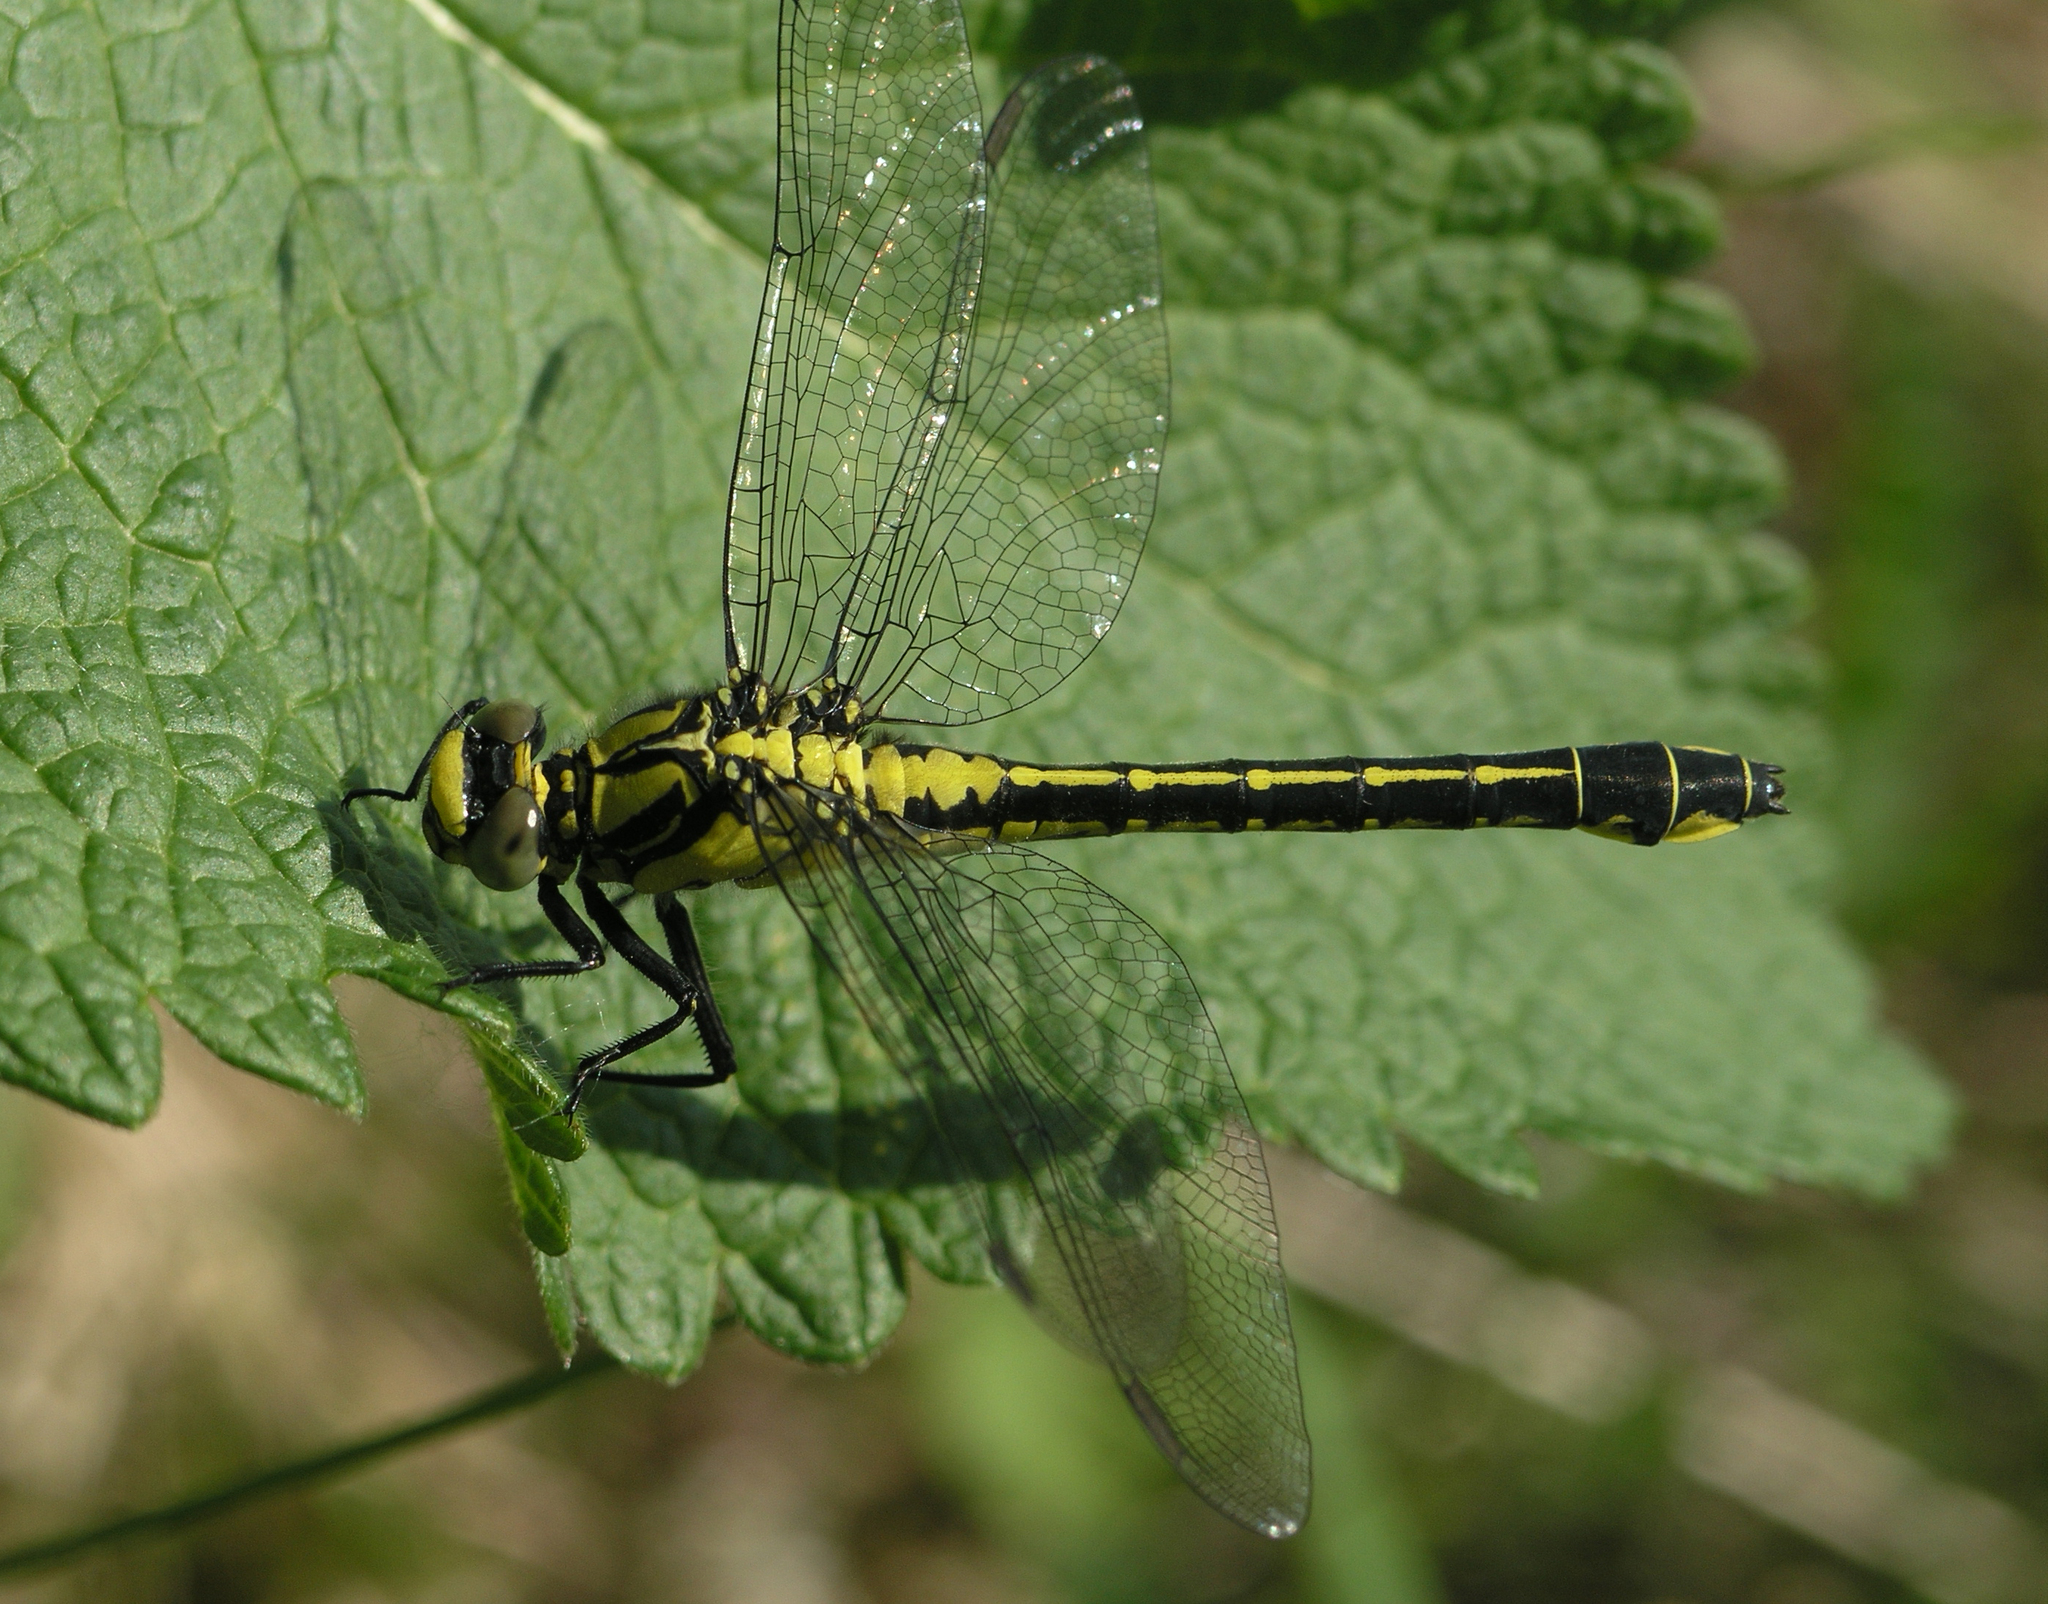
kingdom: Animalia
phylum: Arthropoda
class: Insecta
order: Odonata
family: Gomphidae
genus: Gomphus
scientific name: Gomphus vulgatissimus
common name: Club-tailed dragonfly
